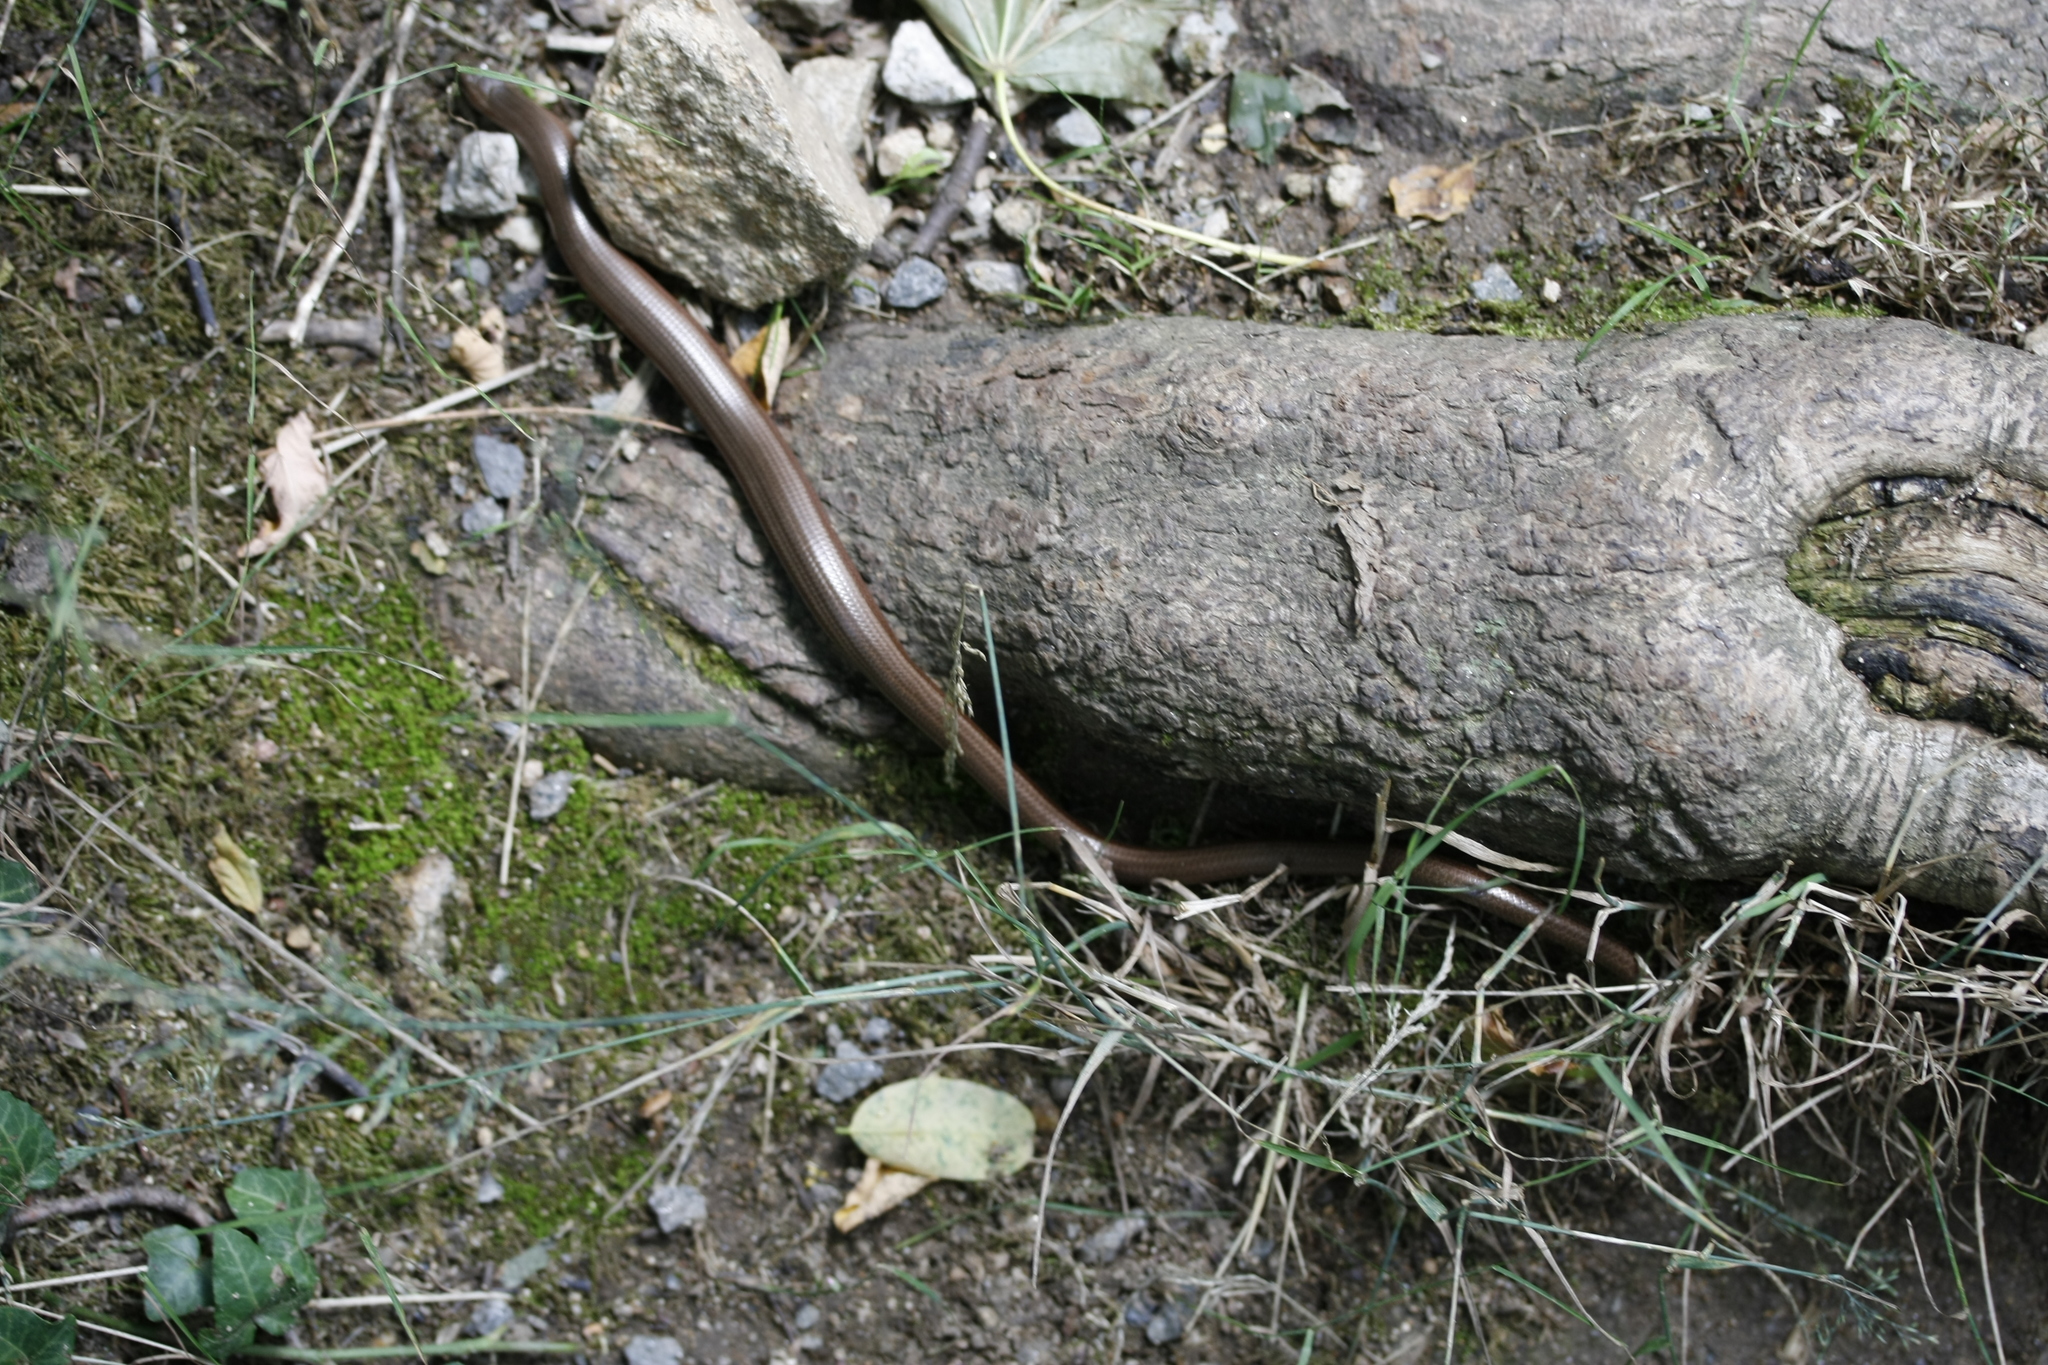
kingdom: Animalia
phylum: Chordata
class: Squamata
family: Anguidae
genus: Anguis
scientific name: Anguis fragilis
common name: Slow worm
